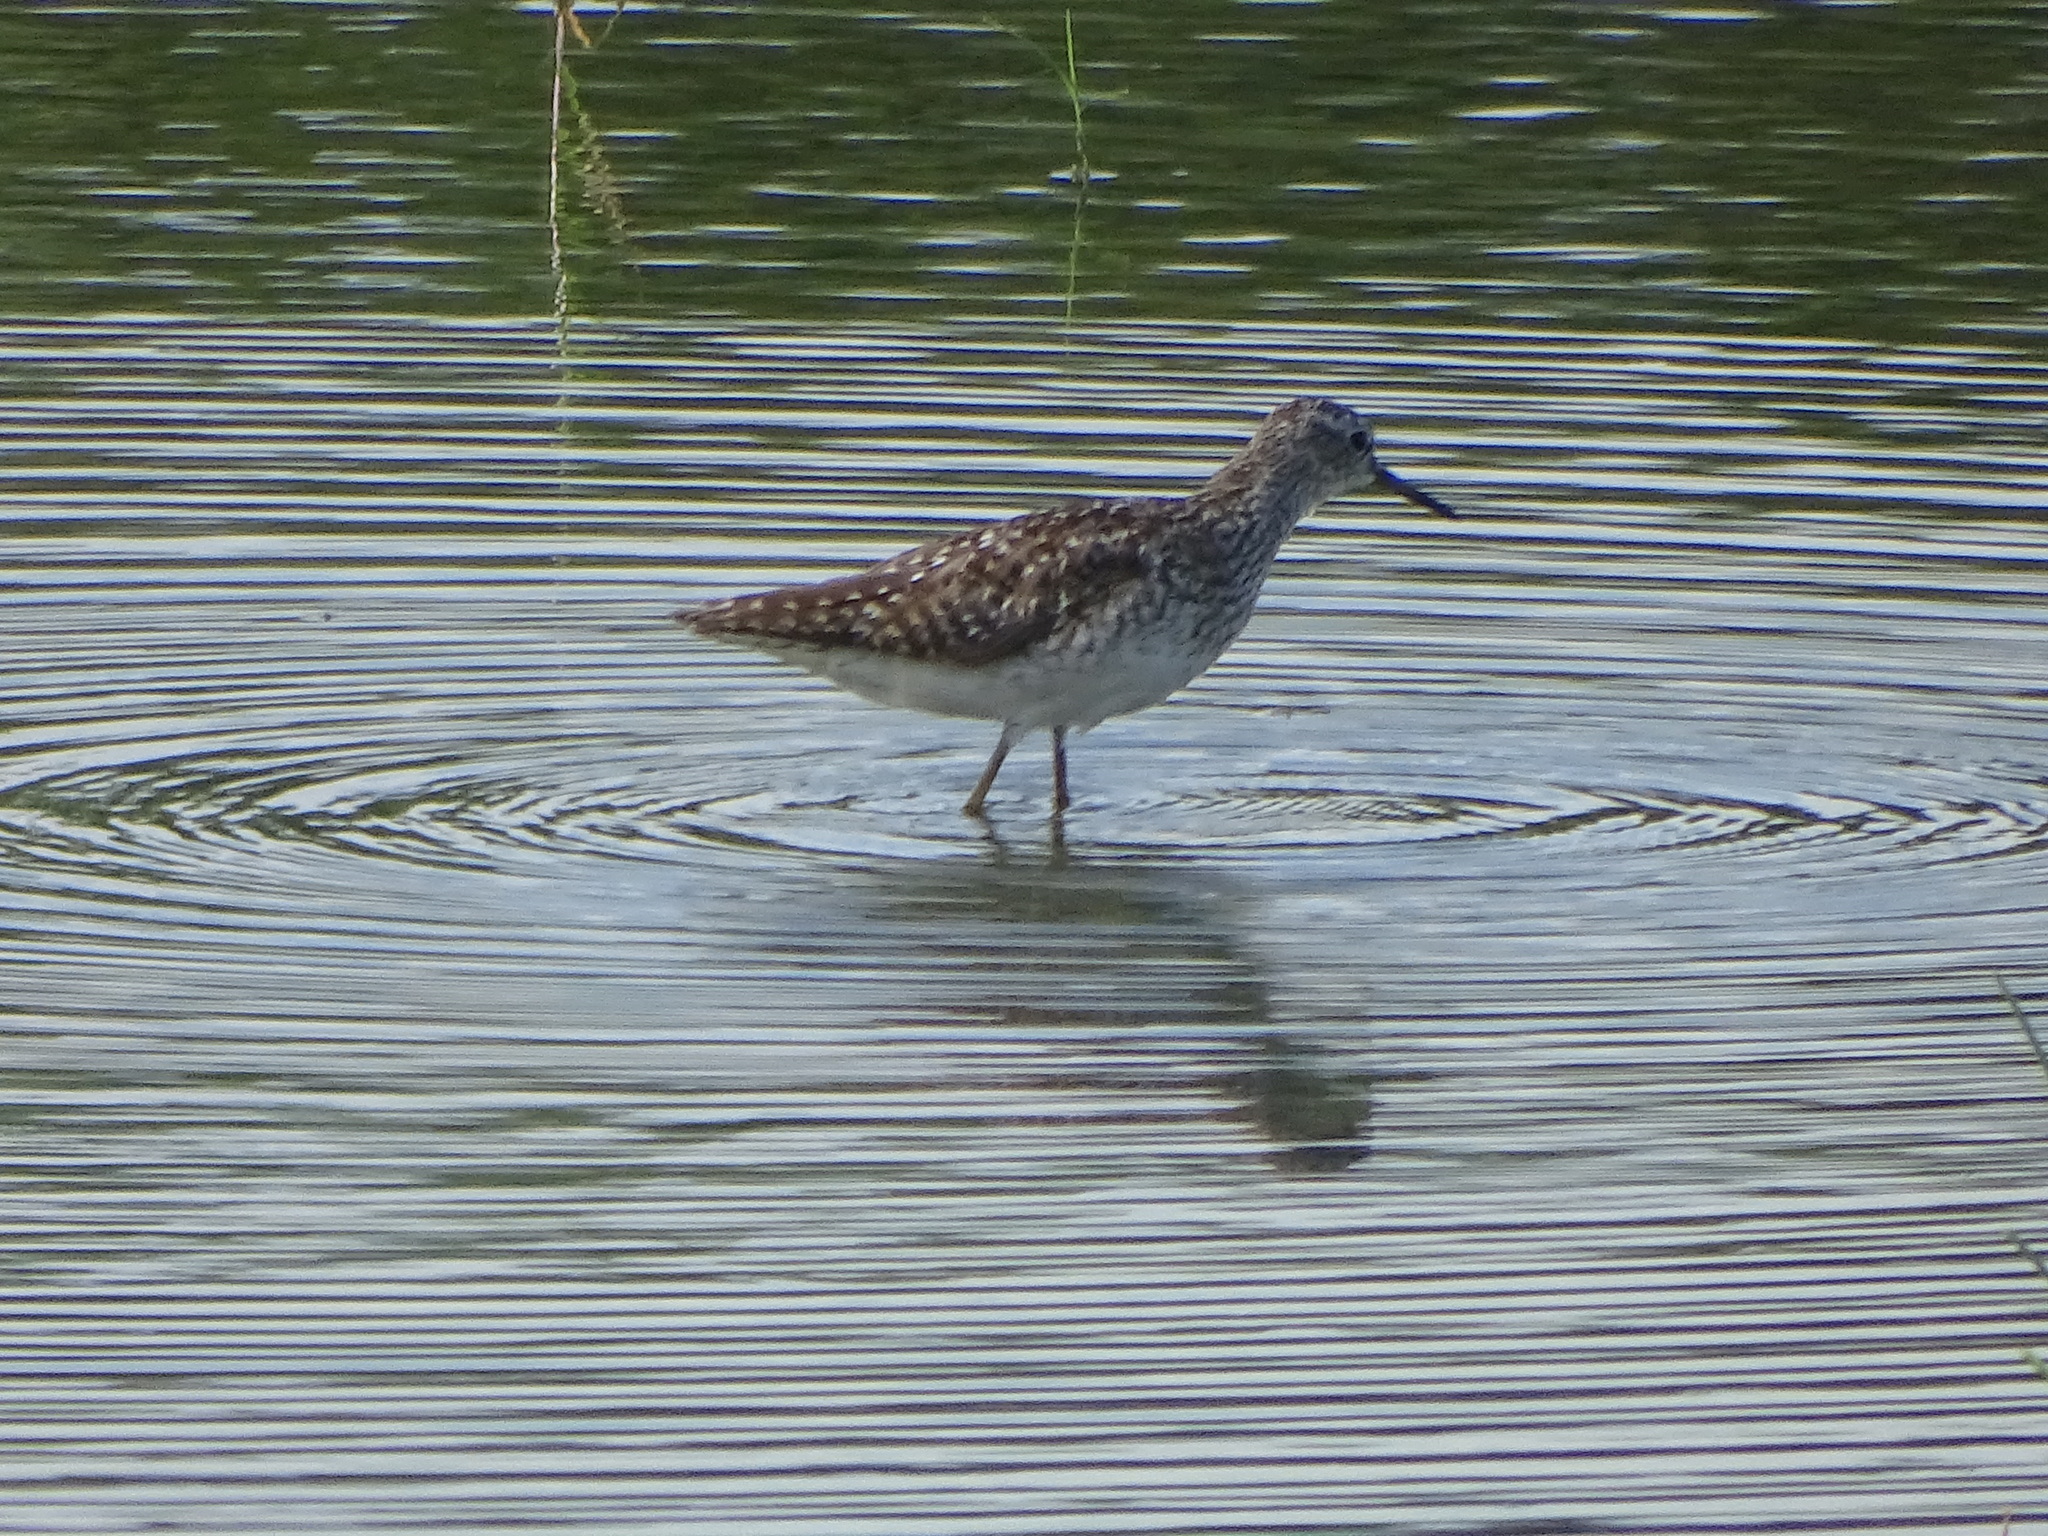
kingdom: Animalia
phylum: Chordata
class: Aves
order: Charadriiformes
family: Scolopacidae
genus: Tringa
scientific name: Tringa glareola
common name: Wood sandpiper
